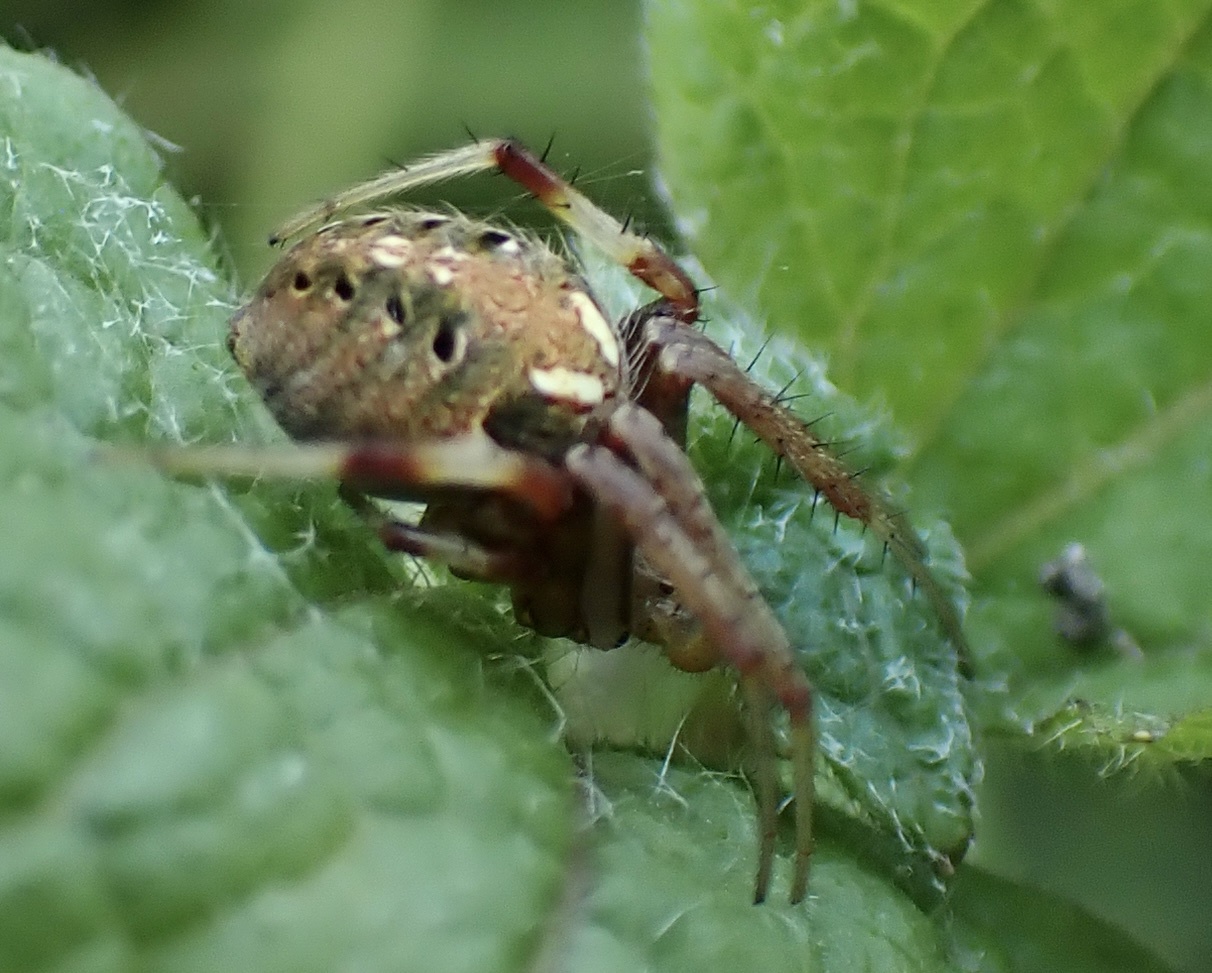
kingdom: Animalia
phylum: Arthropoda
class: Arachnida
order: Araneae
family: Araneidae
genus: Neoscona
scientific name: Neoscona arabesca
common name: Orb weavers
